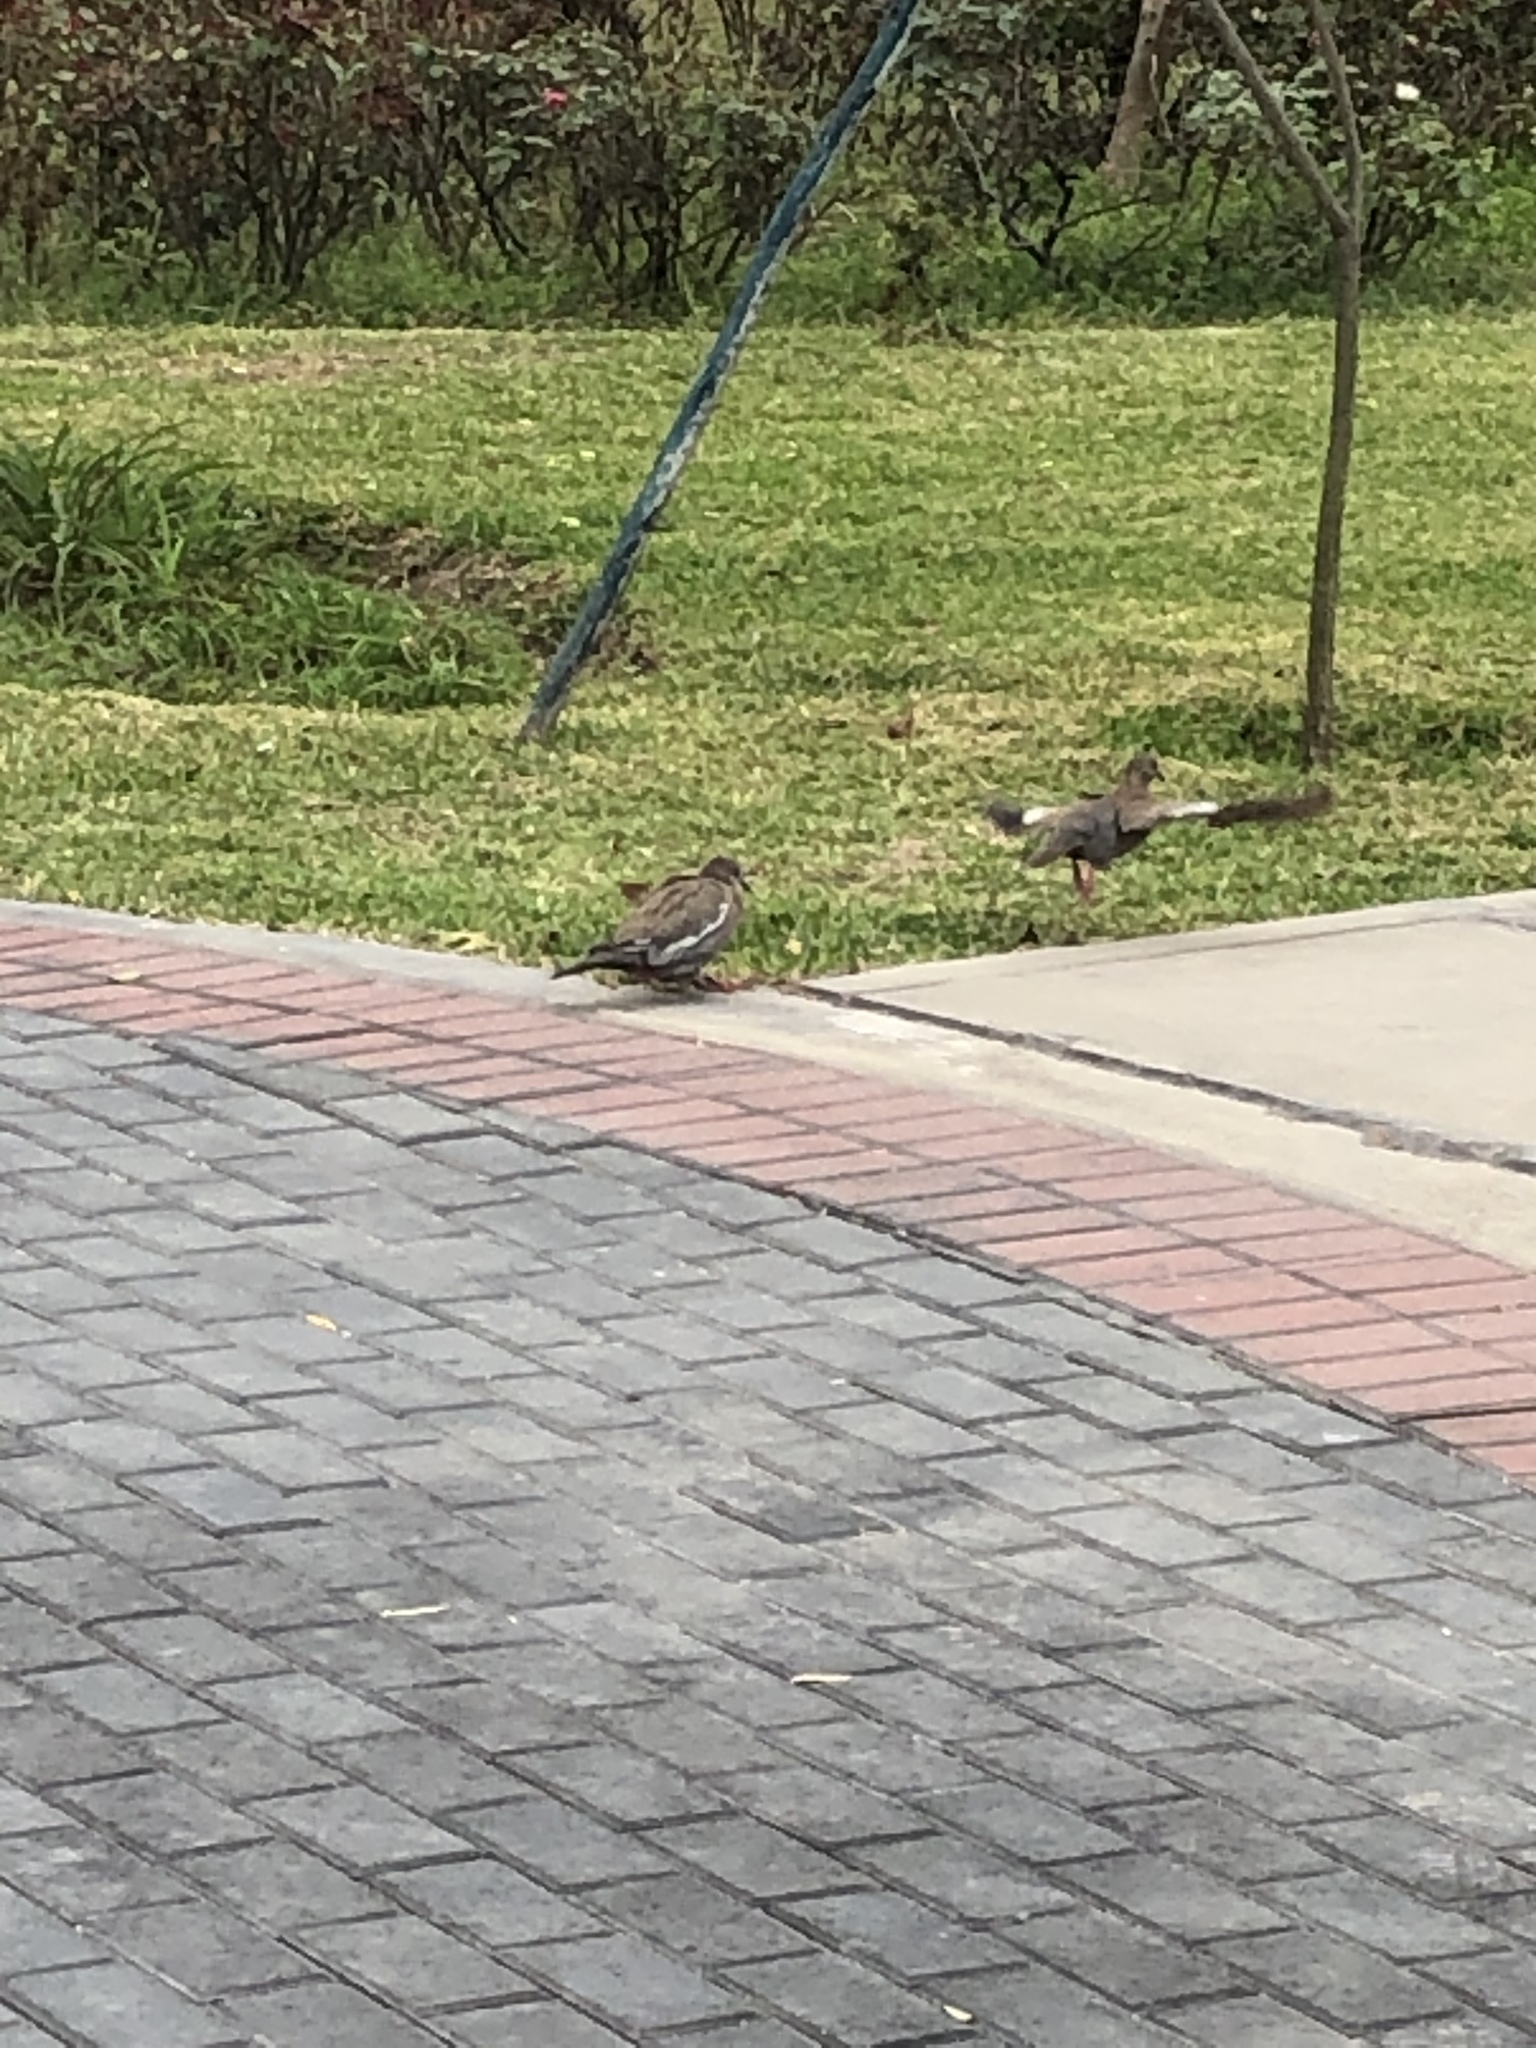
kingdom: Animalia
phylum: Chordata
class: Aves
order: Columbiformes
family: Columbidae
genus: Zenaida
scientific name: Zenaida meloda
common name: West peruvian dove
